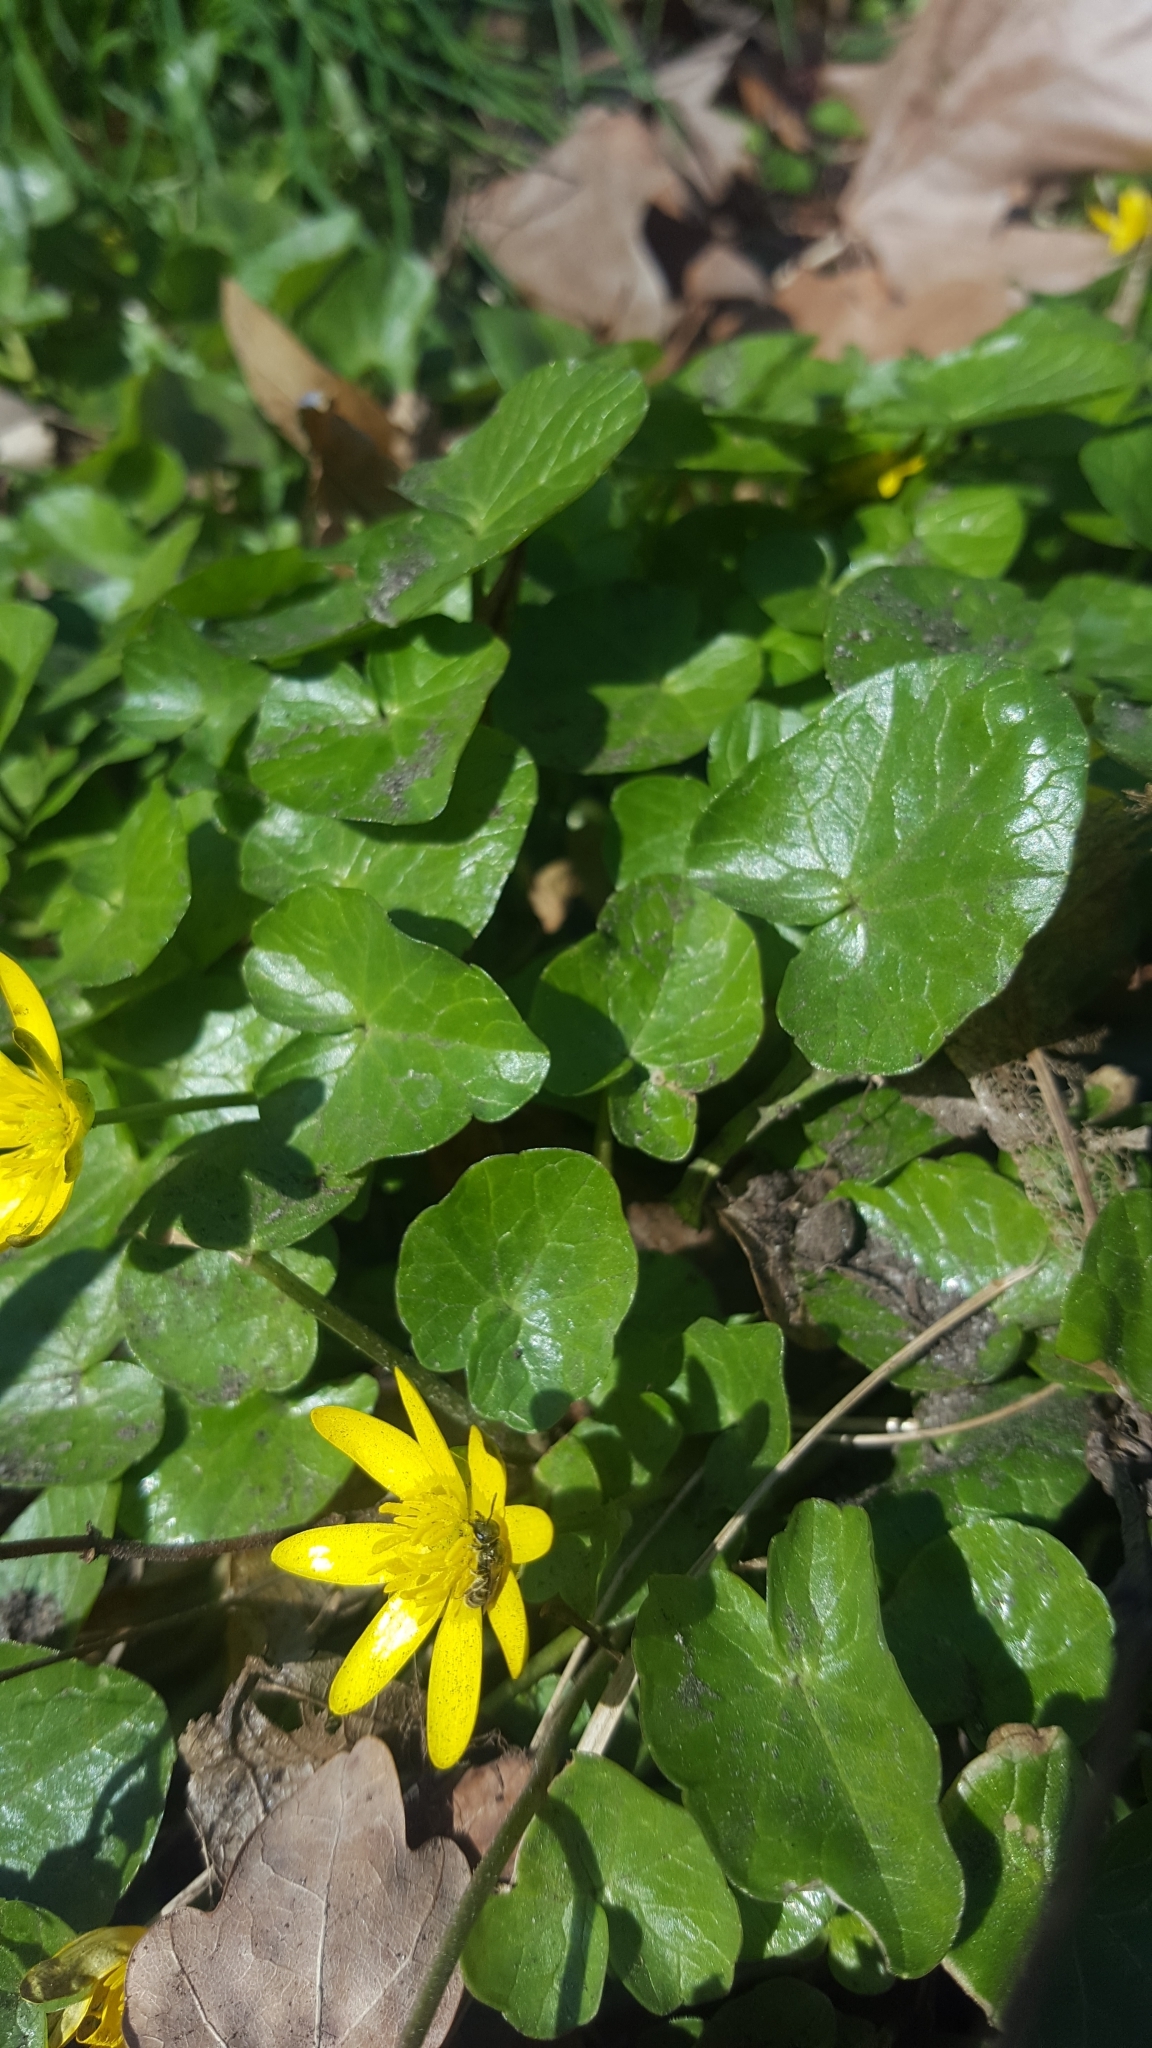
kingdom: Plantae
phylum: Tracheophyta
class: Magnoliopsida
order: Ranunculales
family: Ranunculaceae
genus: Ficaria
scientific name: Ficaria verna
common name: Lesser celandine
